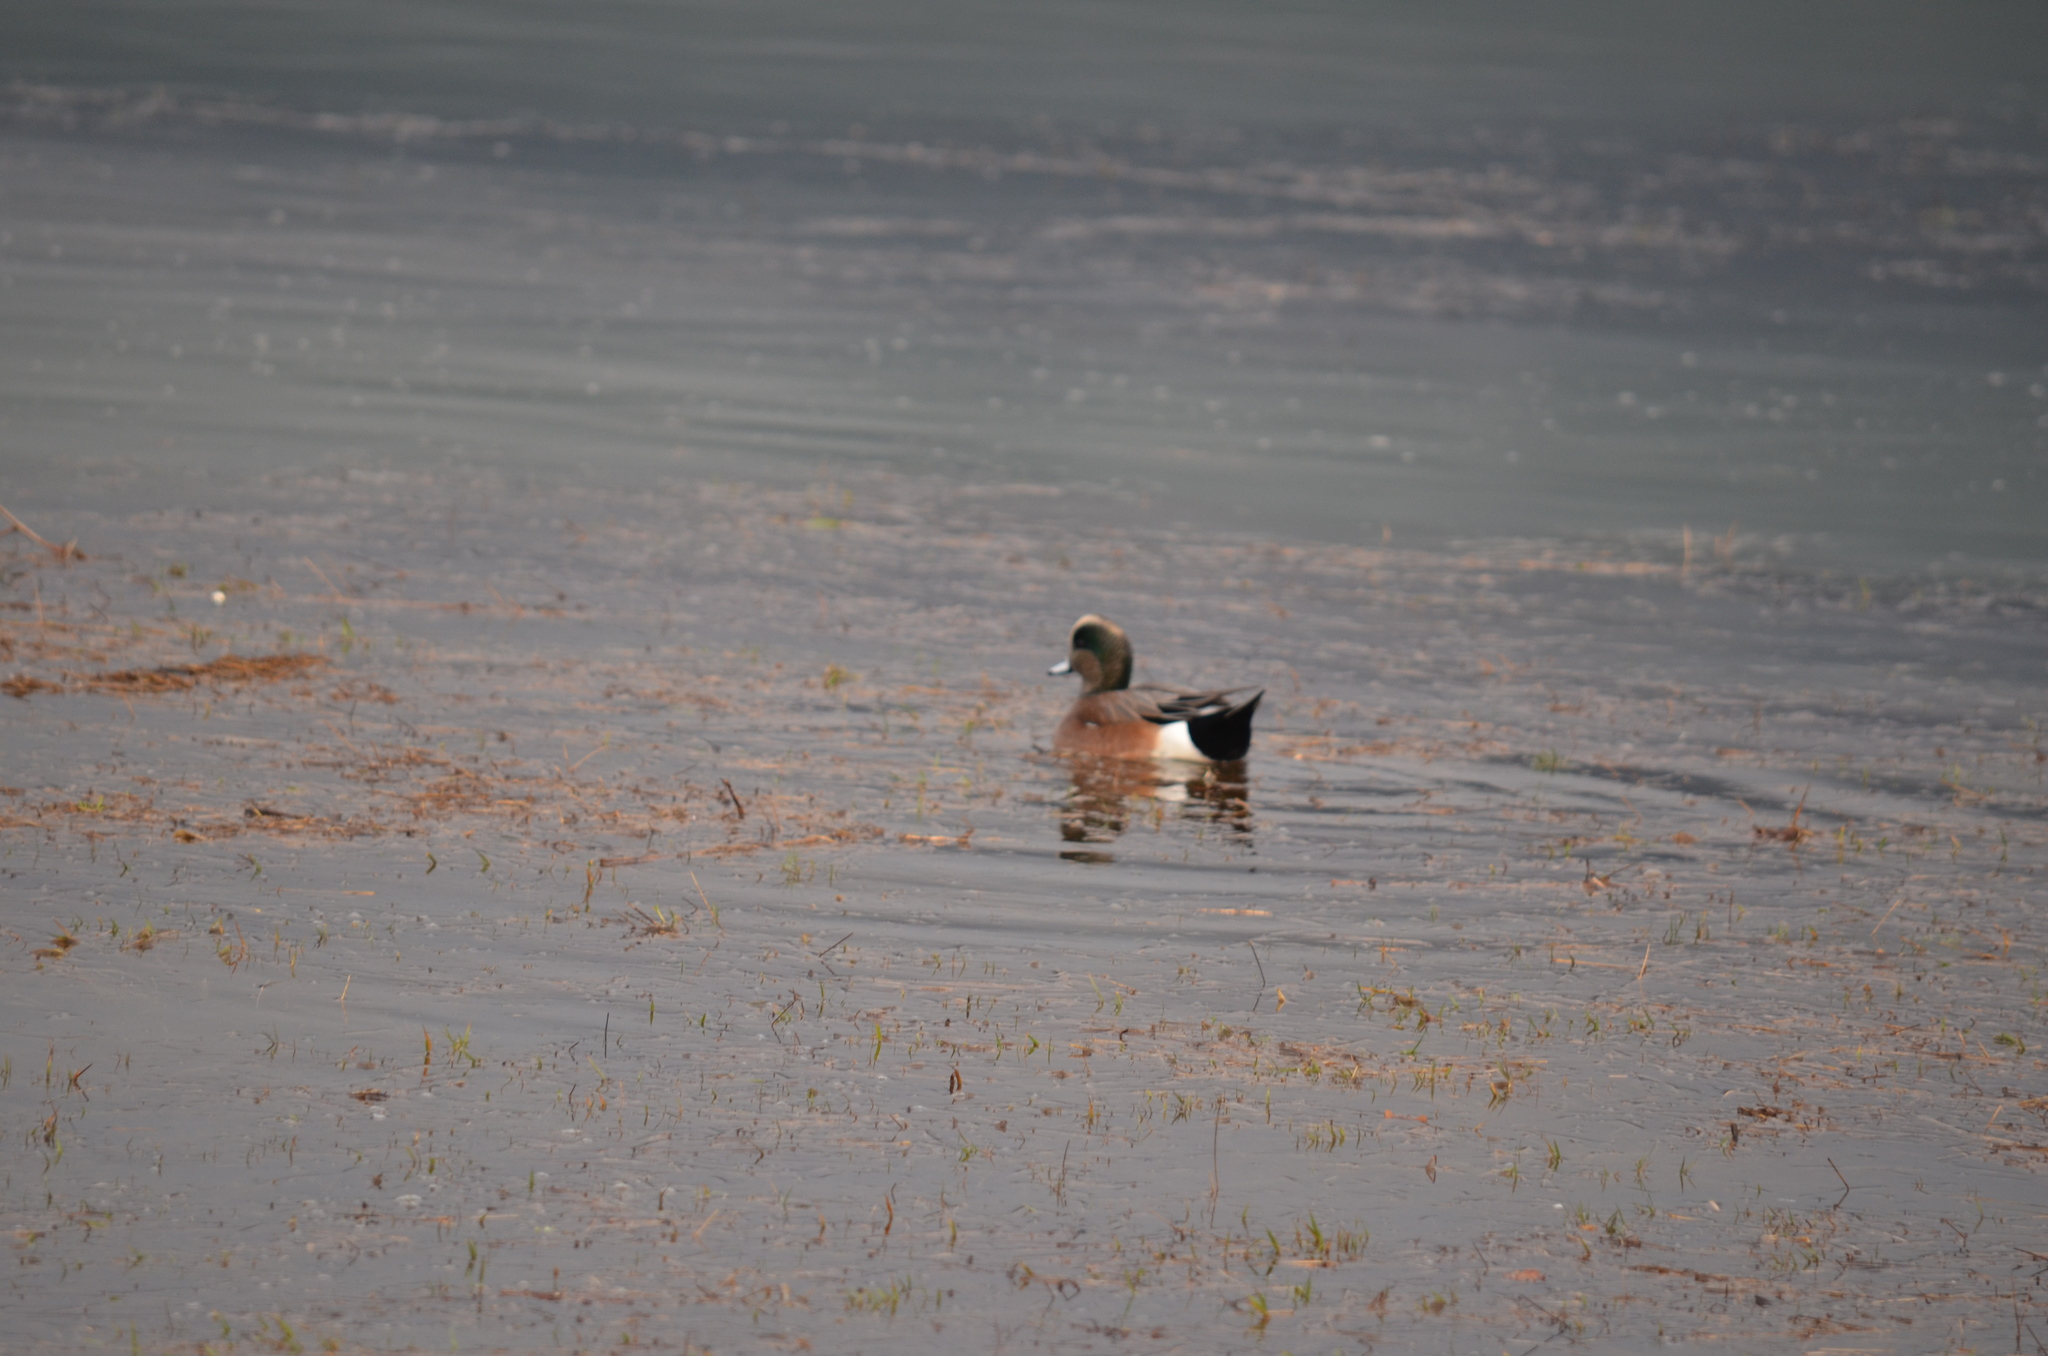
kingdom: Animalia
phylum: Chordata
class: Aves
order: Anseriformes
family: Anatidae
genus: Mareca
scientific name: Mareca americana
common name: American wigeon
